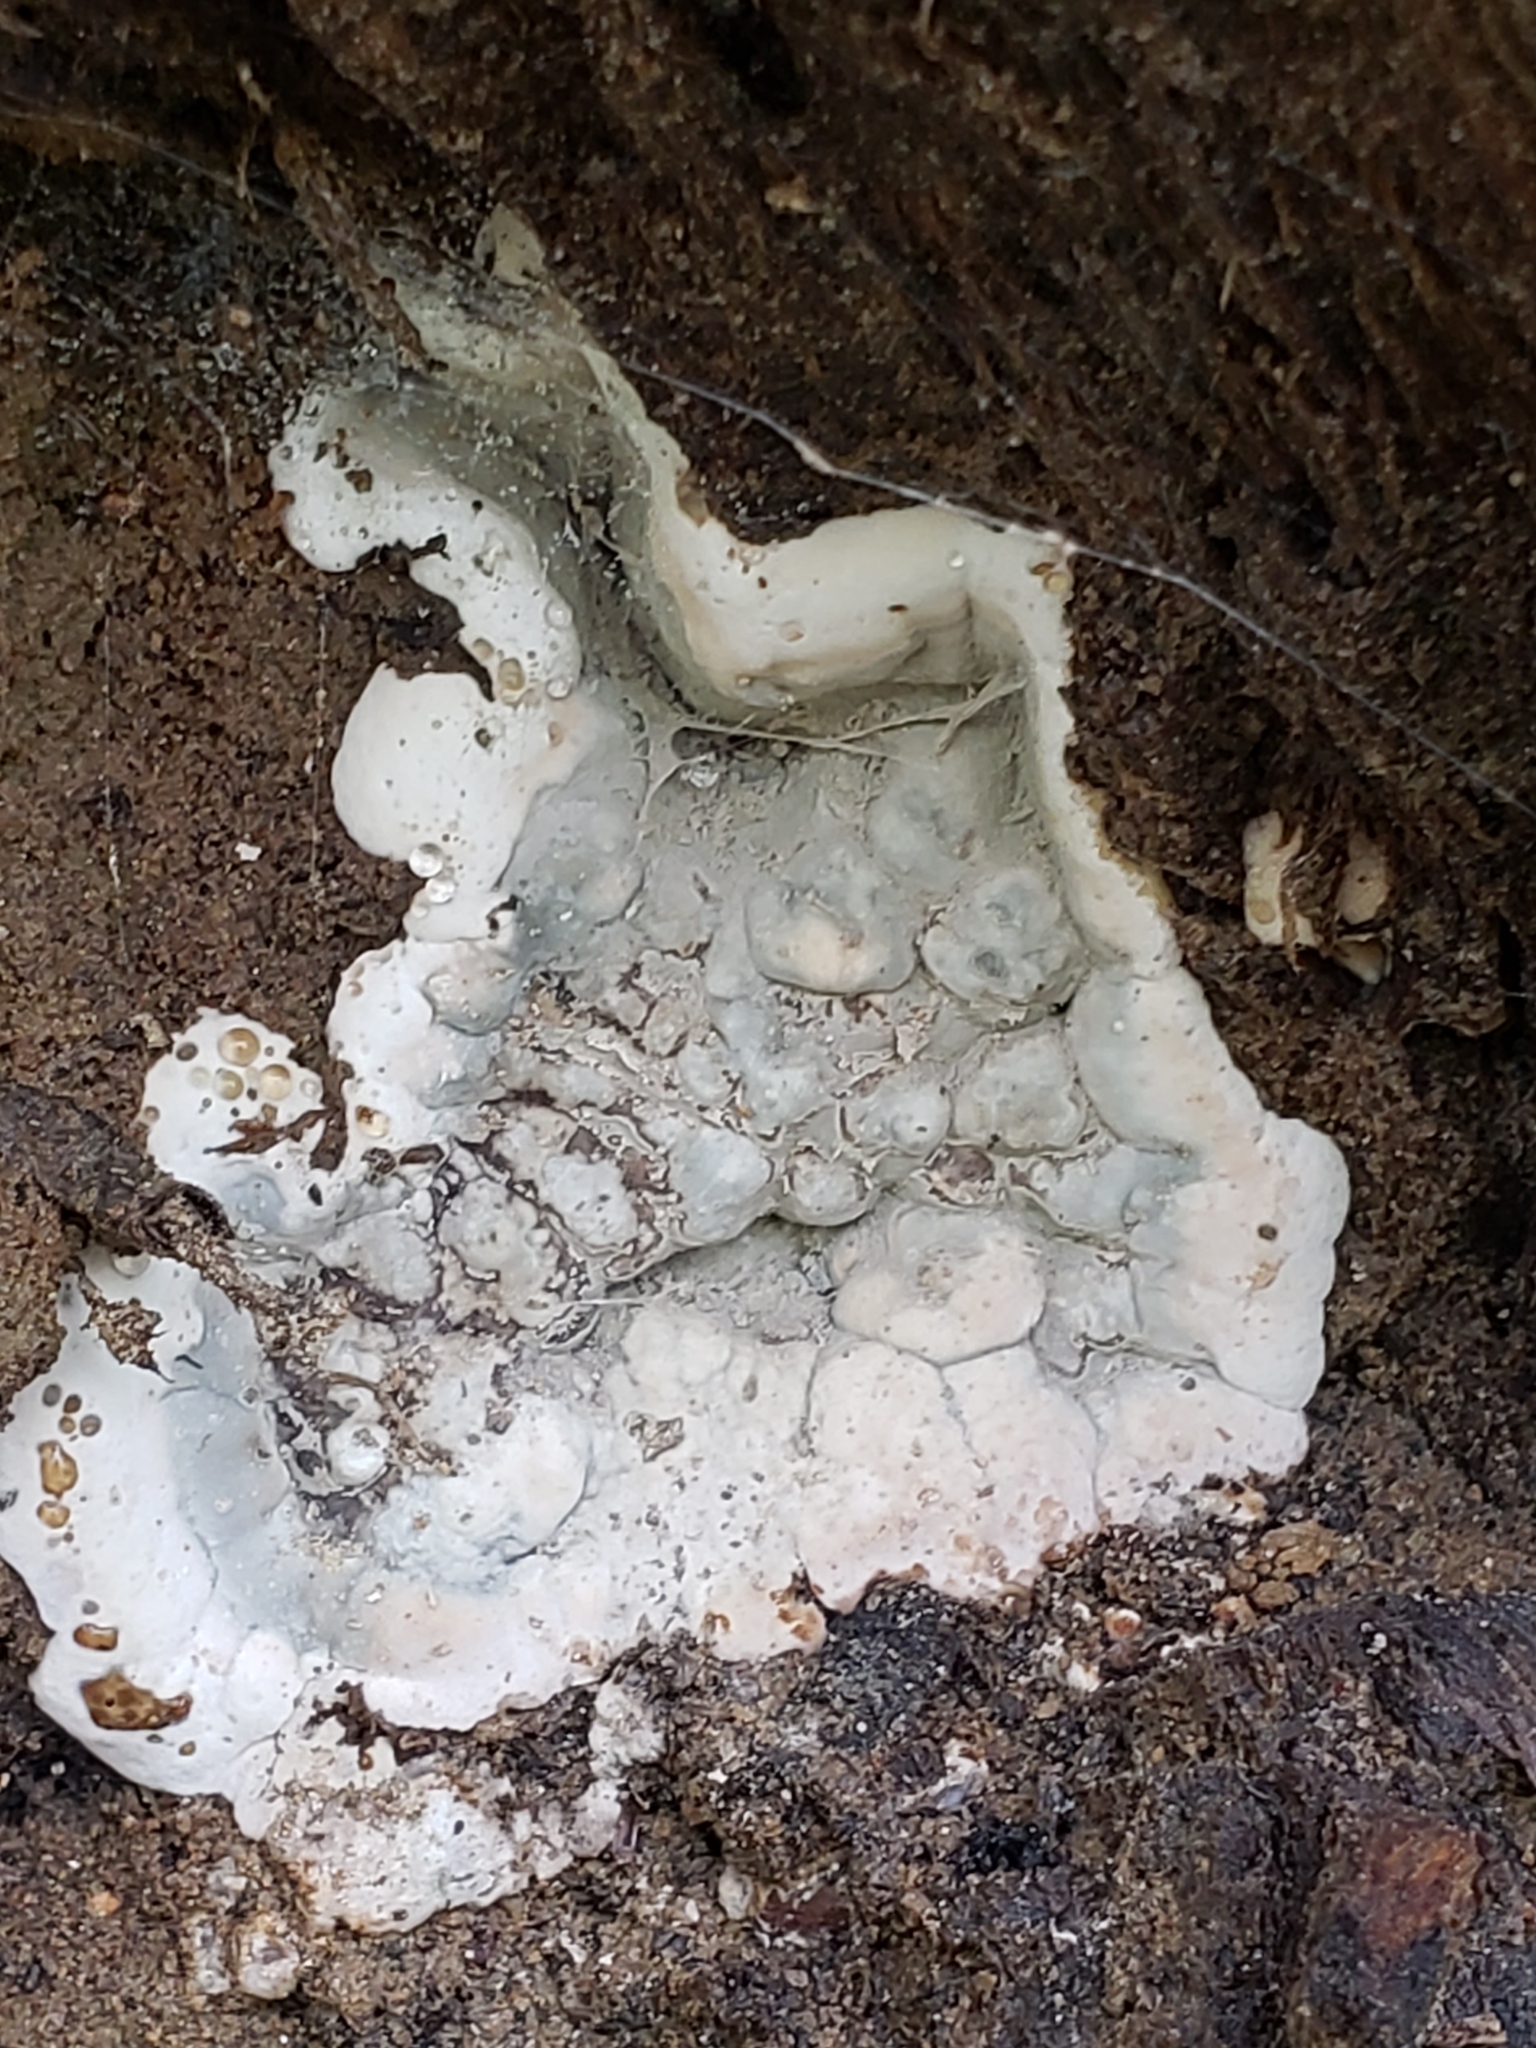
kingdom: Fungi
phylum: Ascomycota
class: Sordariomycetes
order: Xylariales
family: Xylariaceae
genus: Kretzschmaria
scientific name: Kretzschmaria deusta
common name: Brittle cinder
